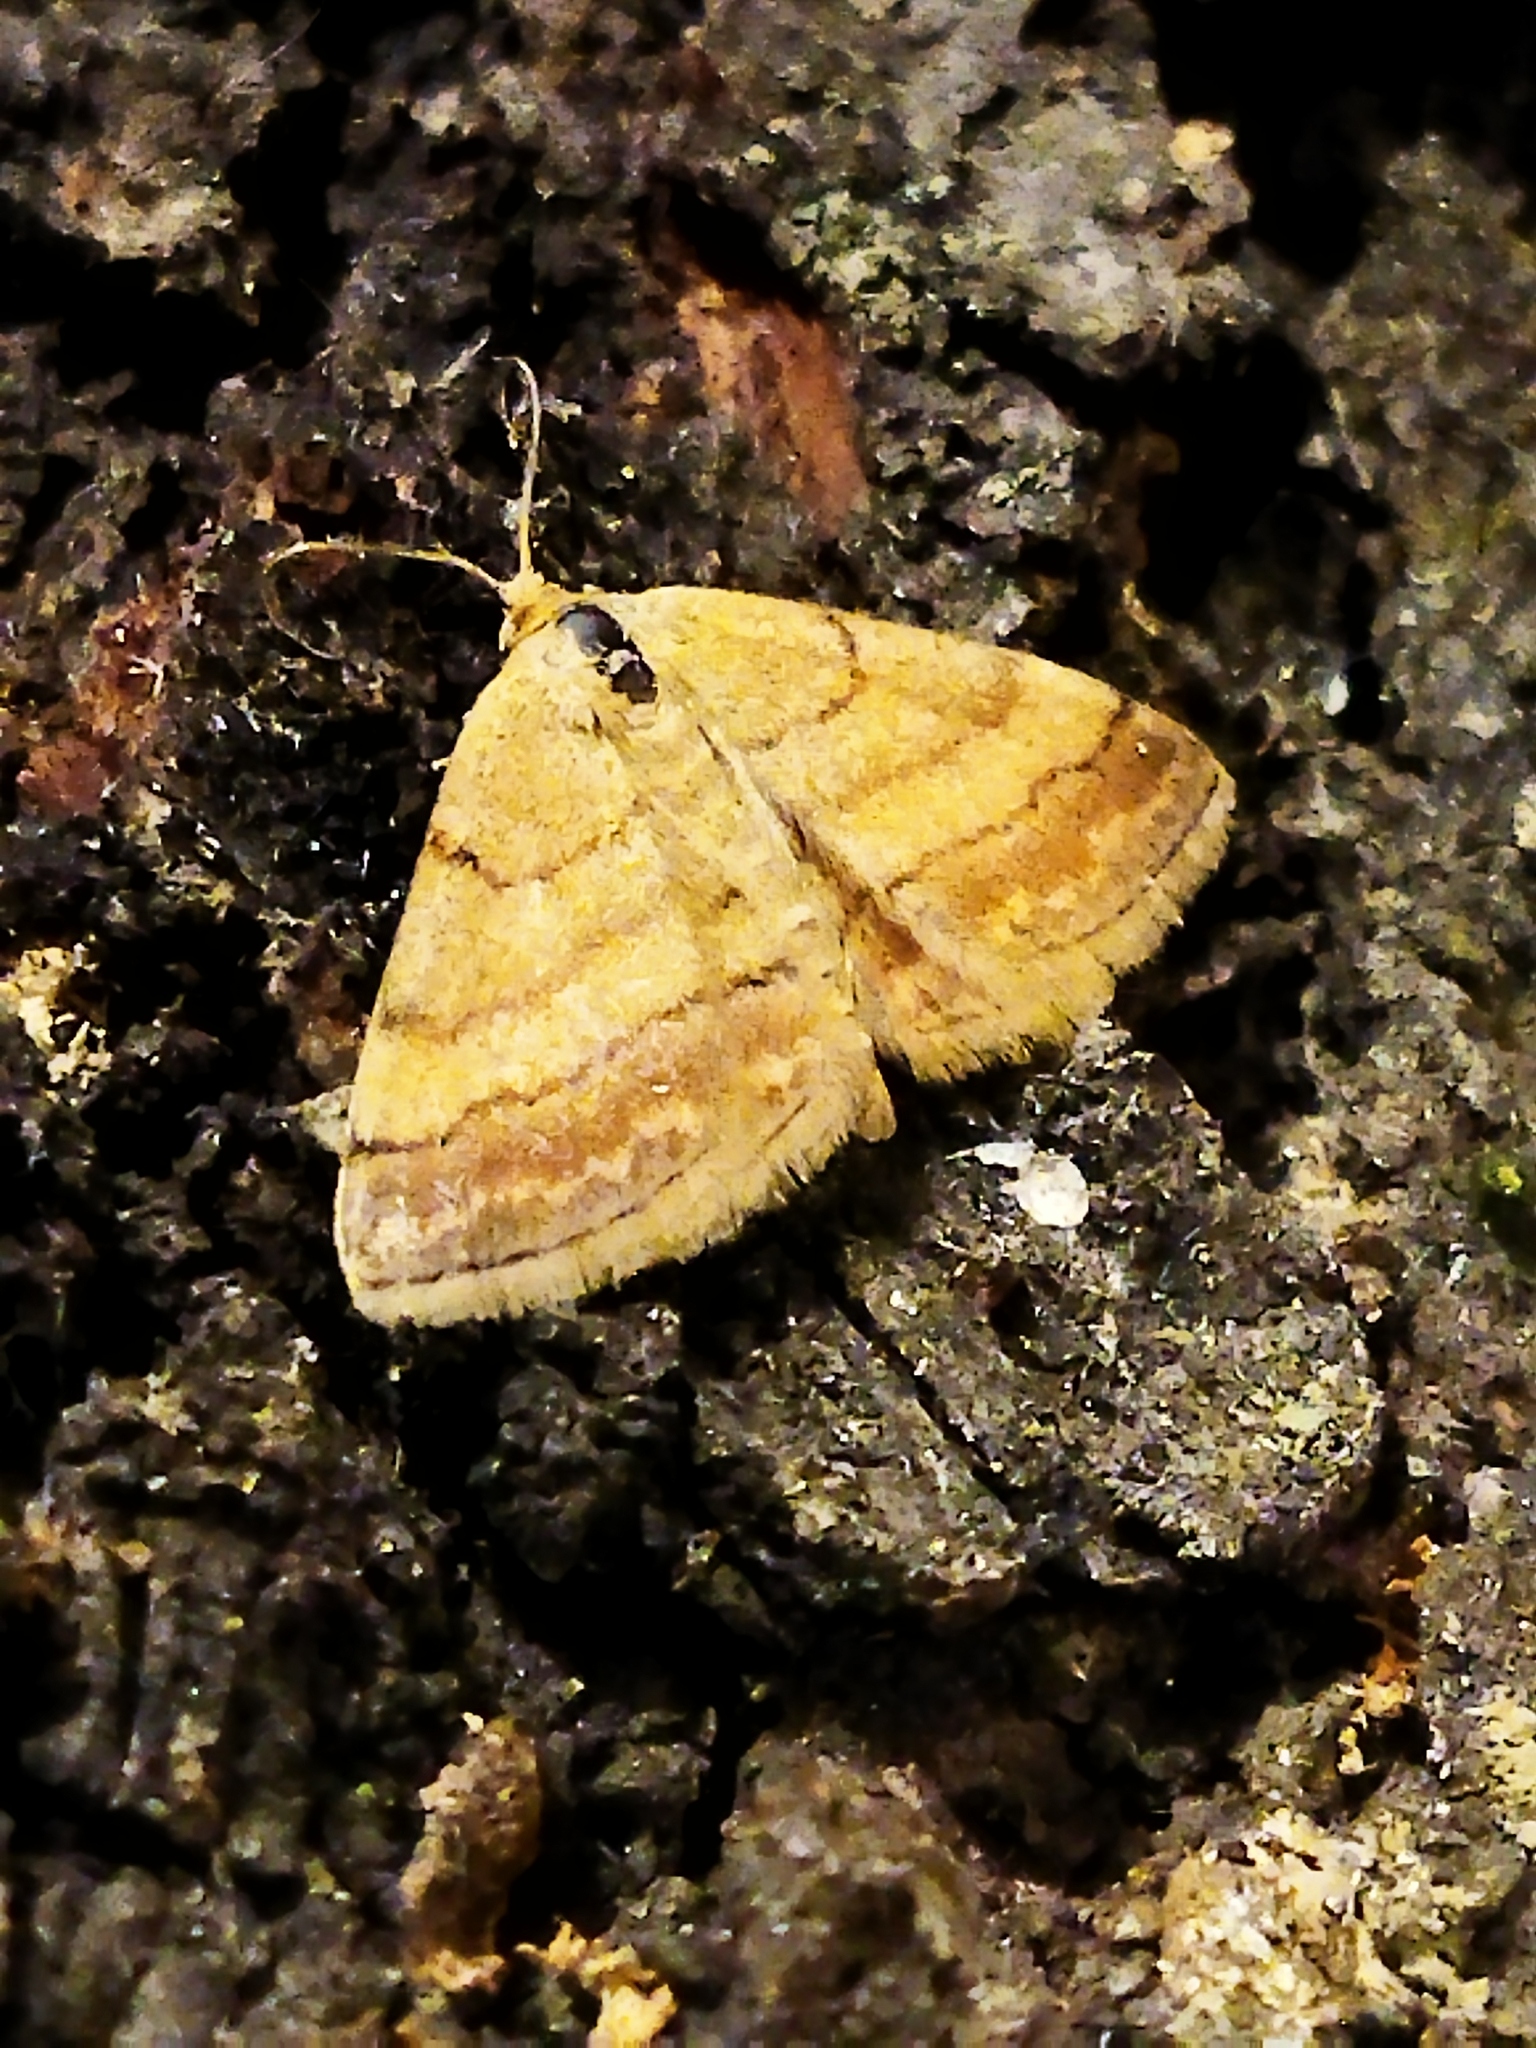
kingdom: Animalia
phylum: Arthropoda
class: Insecta
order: Lepidoptera
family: Geometridae
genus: Scopula
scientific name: Scopula rubiginata
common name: Tawny wave
